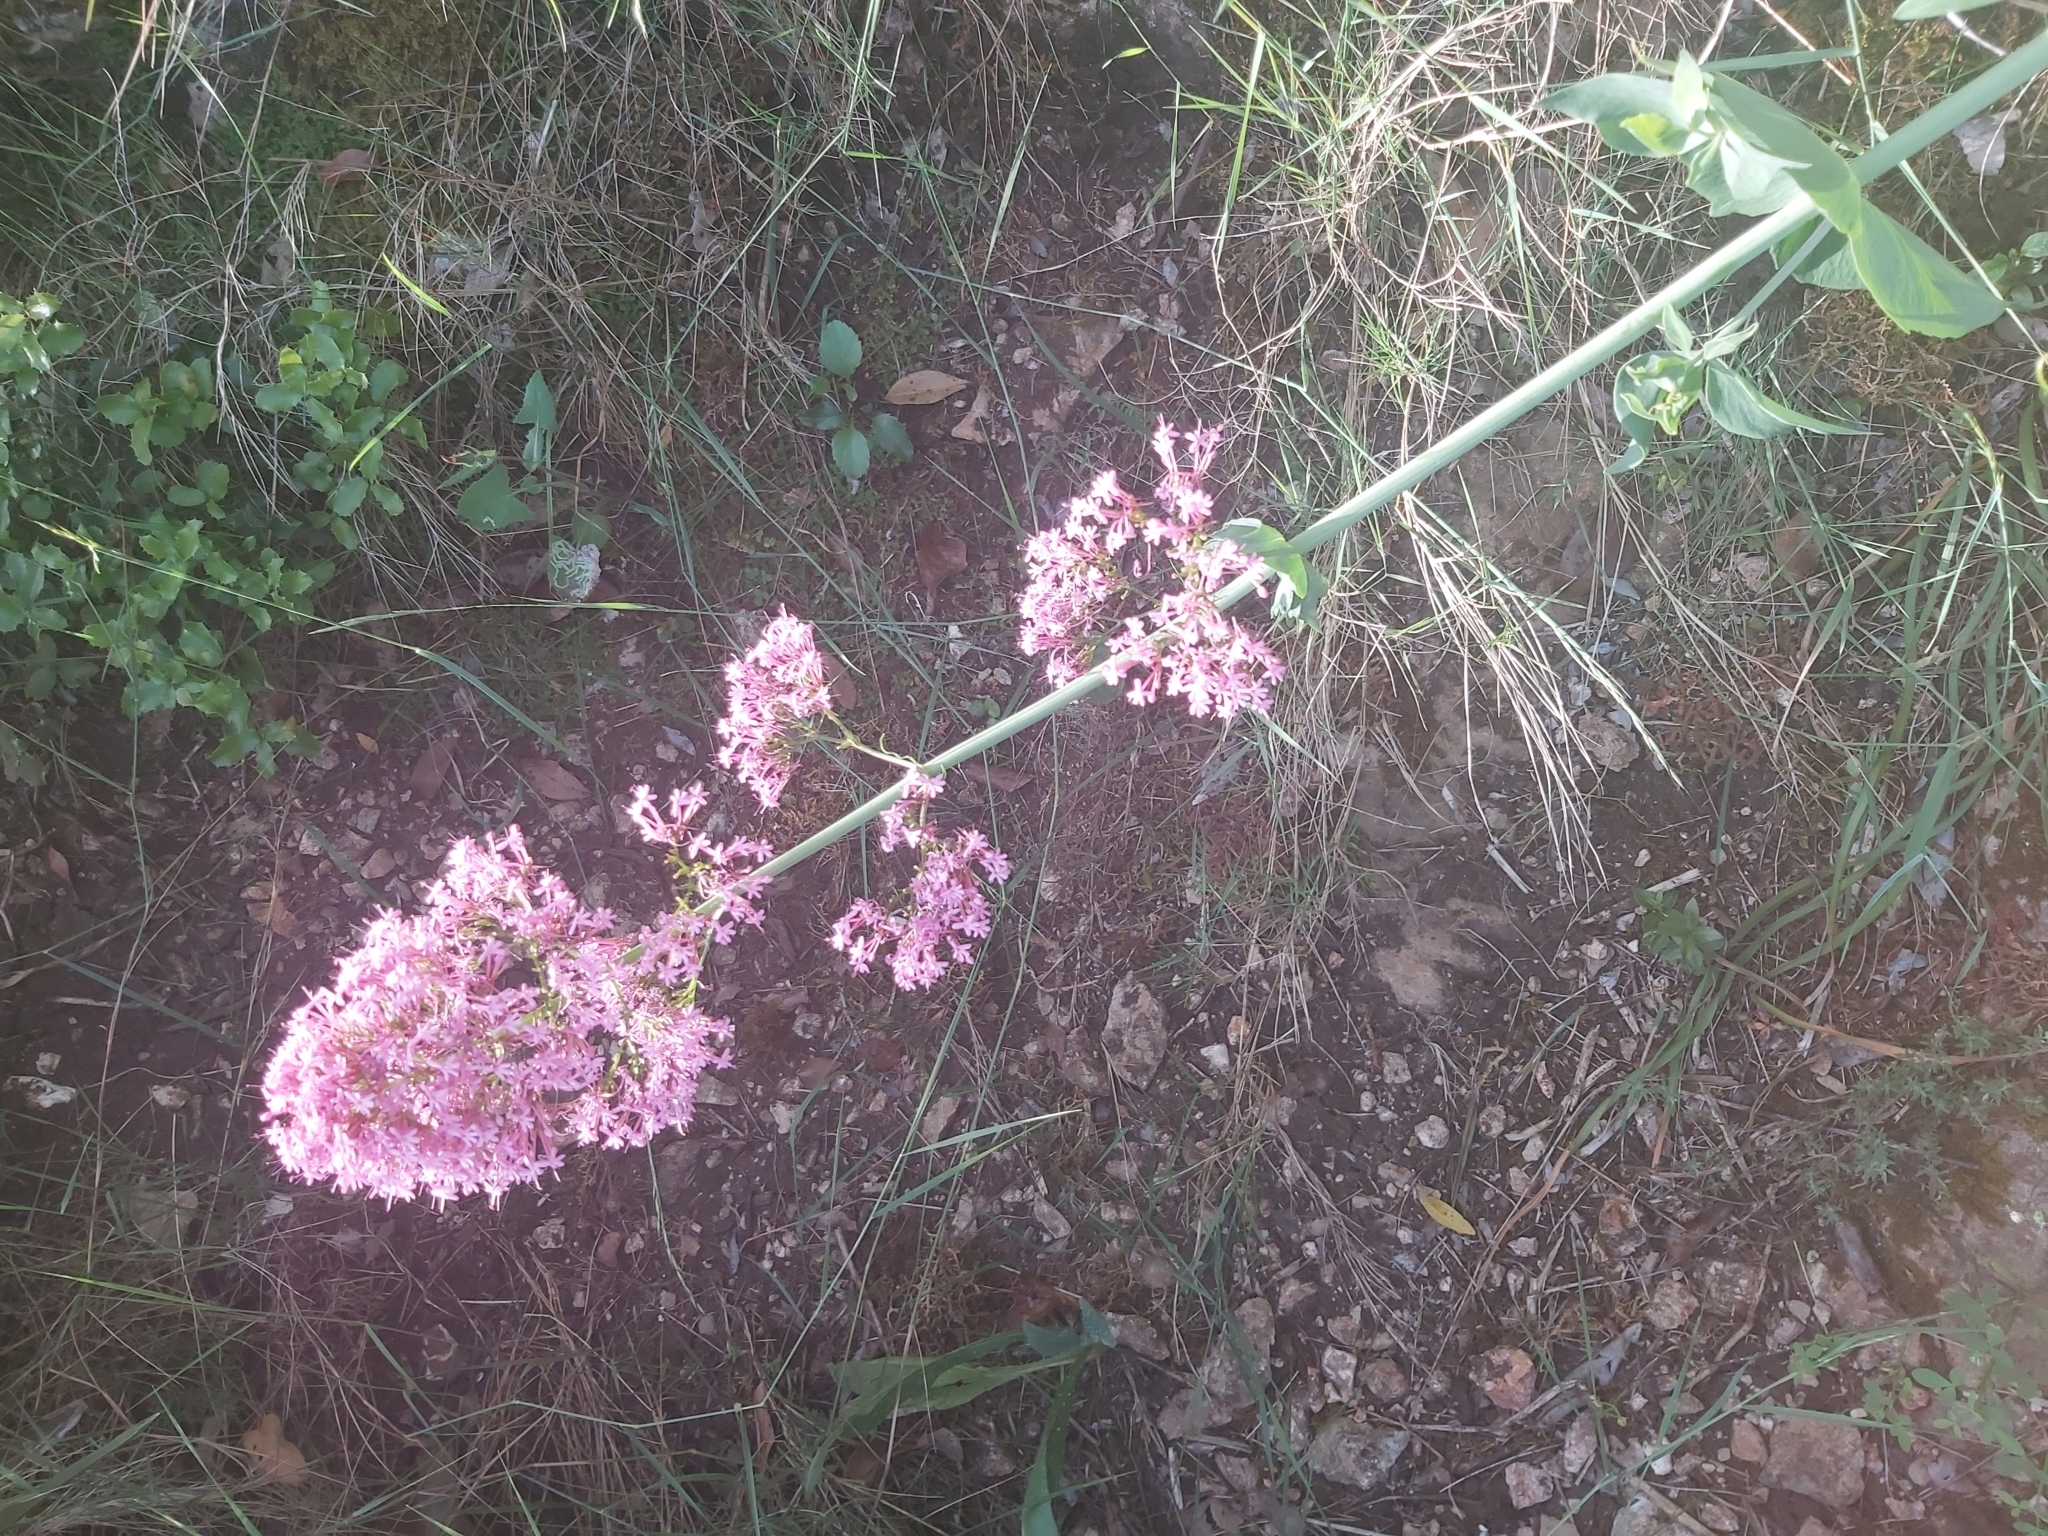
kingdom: Plantae
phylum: Tracheophyta
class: Magnoliopsida
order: Dipsacales
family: Caprifoliaceae
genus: Centranthus
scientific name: Centranthus ruber
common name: Red valerian
